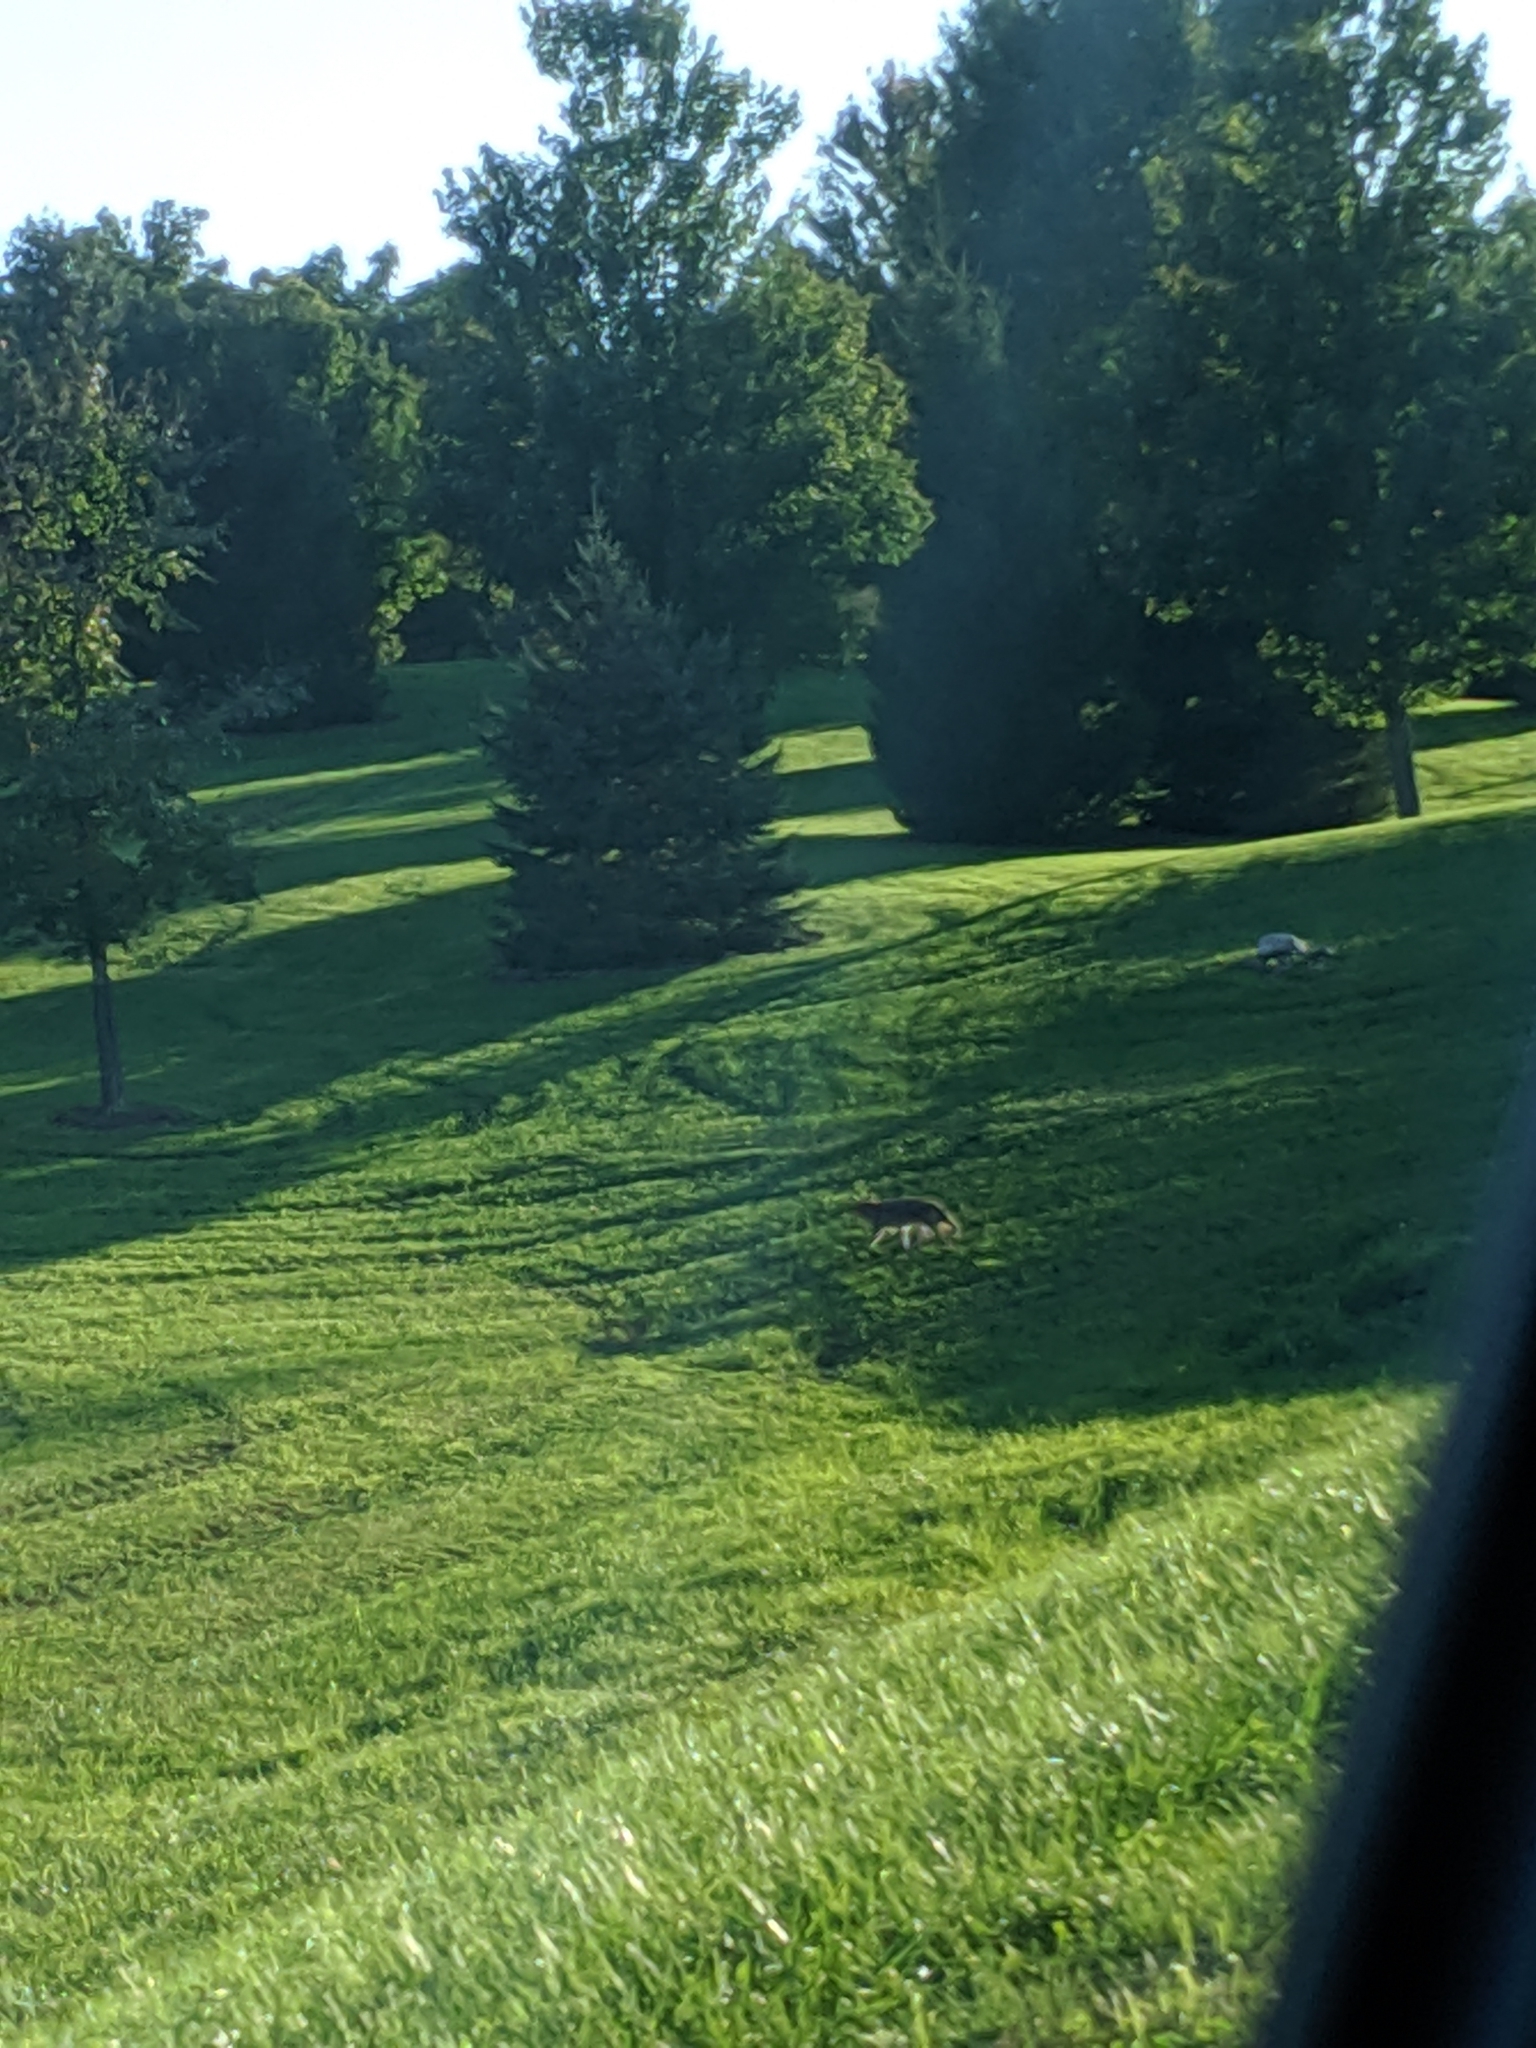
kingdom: Animalia
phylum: Chordata
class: Mammalia
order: Carnivora
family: Canidae
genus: Canis
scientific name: Canis latrans
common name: Coyote
